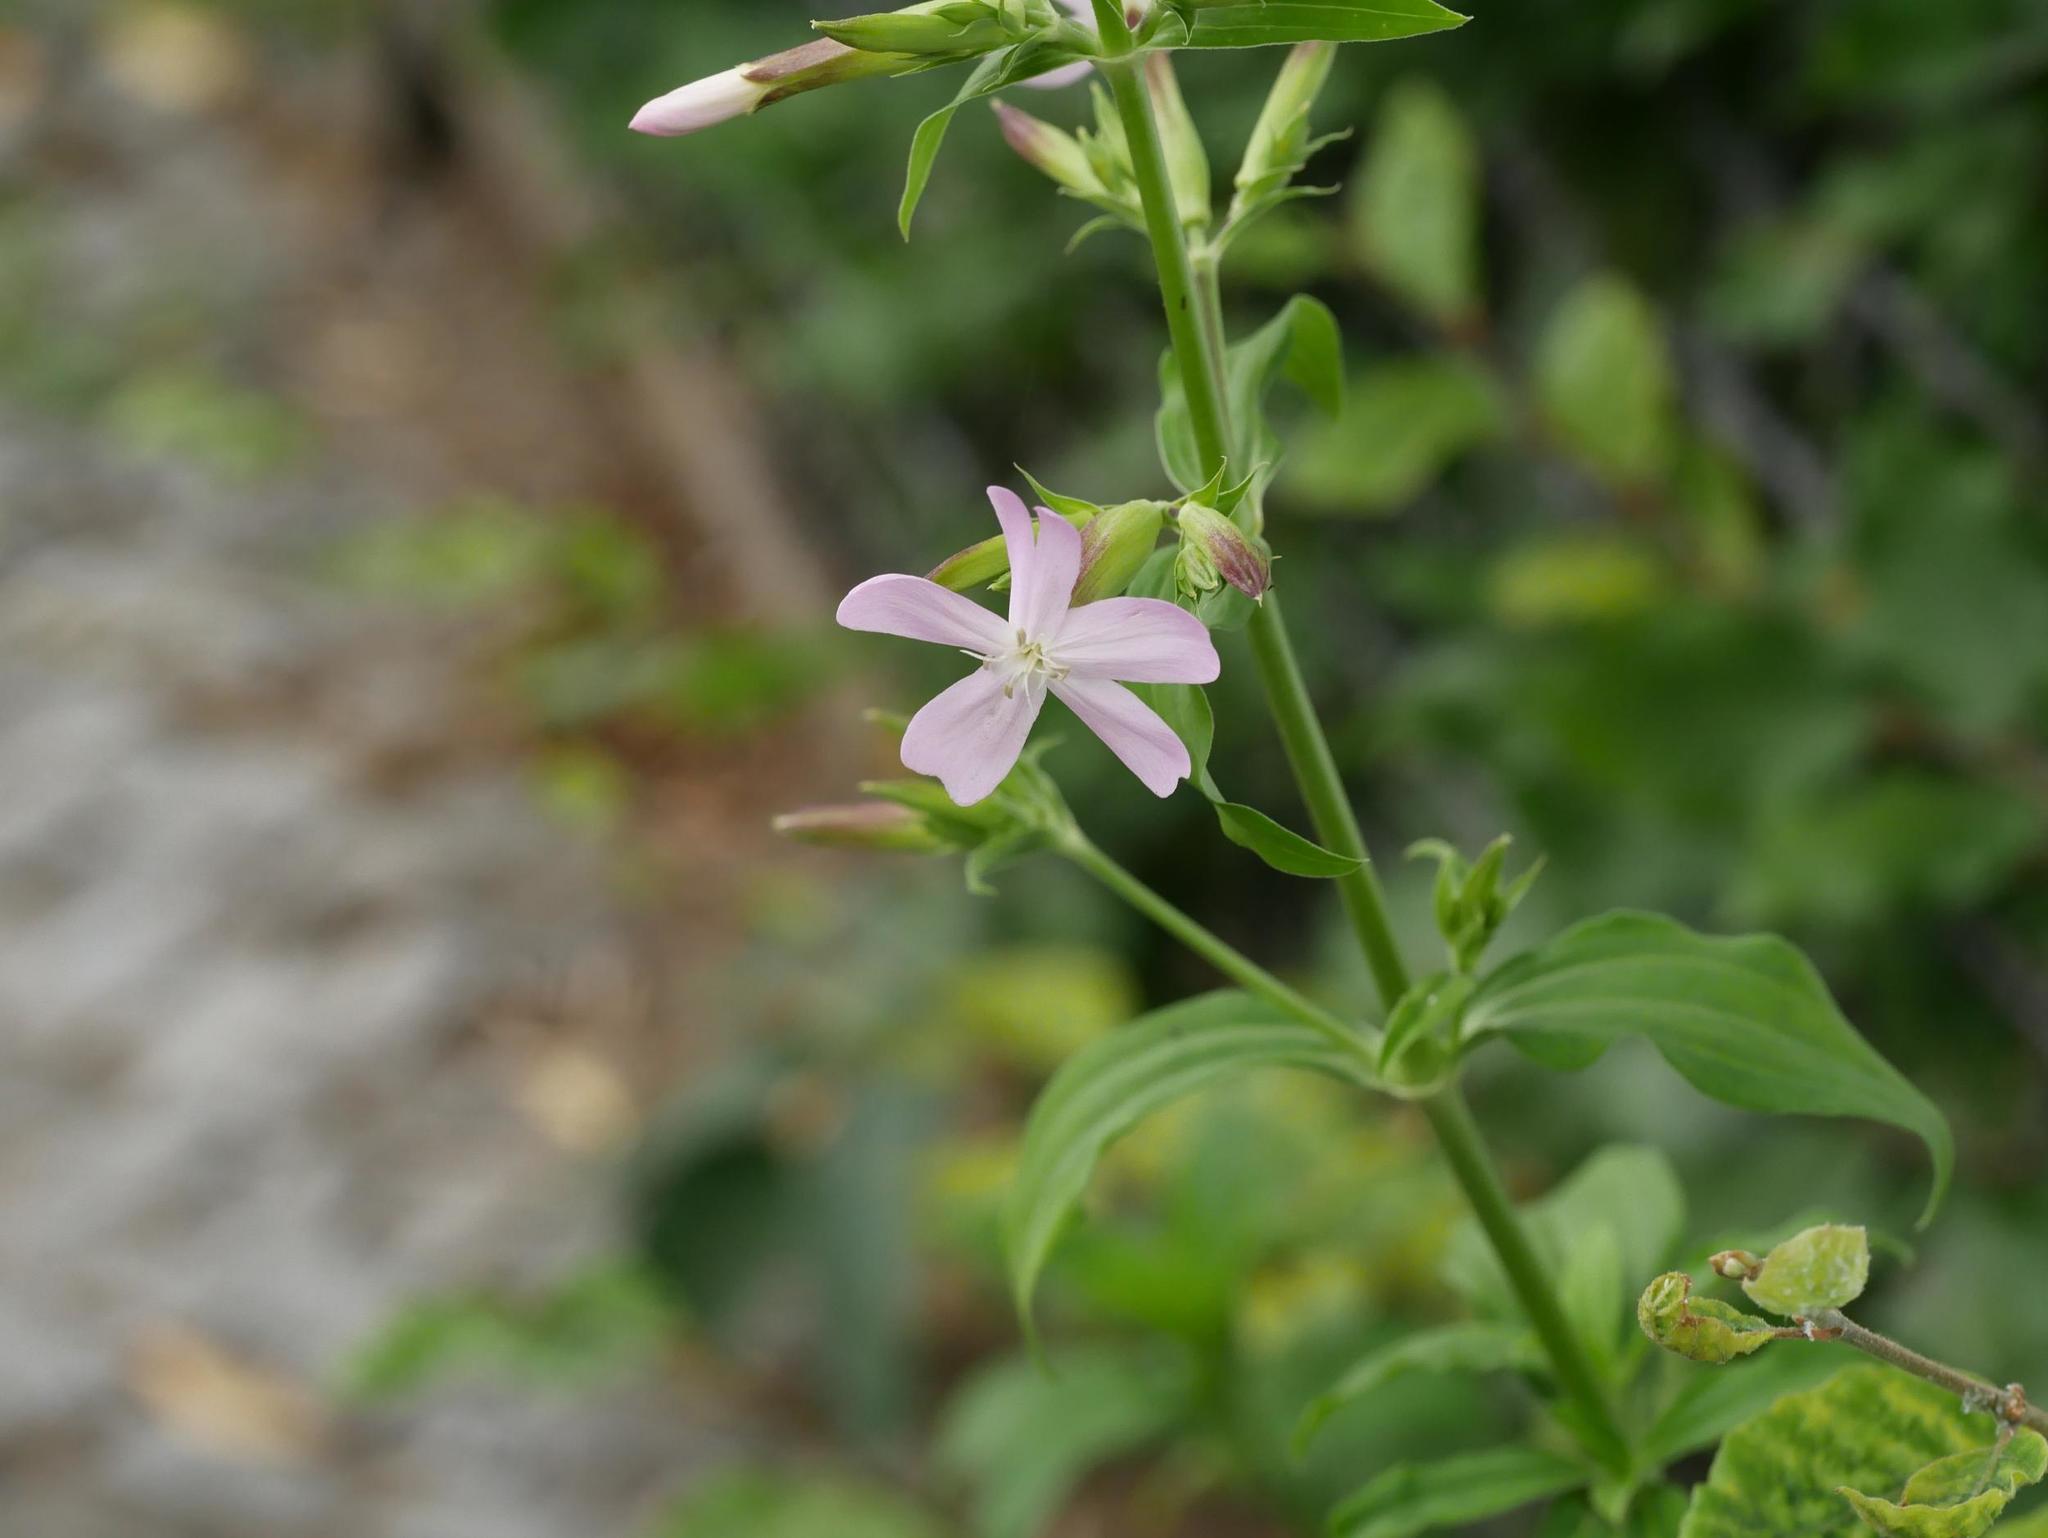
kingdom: Plantae
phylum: Tracheophyta
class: Magnoliopsida
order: Caryophyllales
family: Caryophyllaceae
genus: Saponaria
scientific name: Saponaria officinalis
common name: Soapwort
